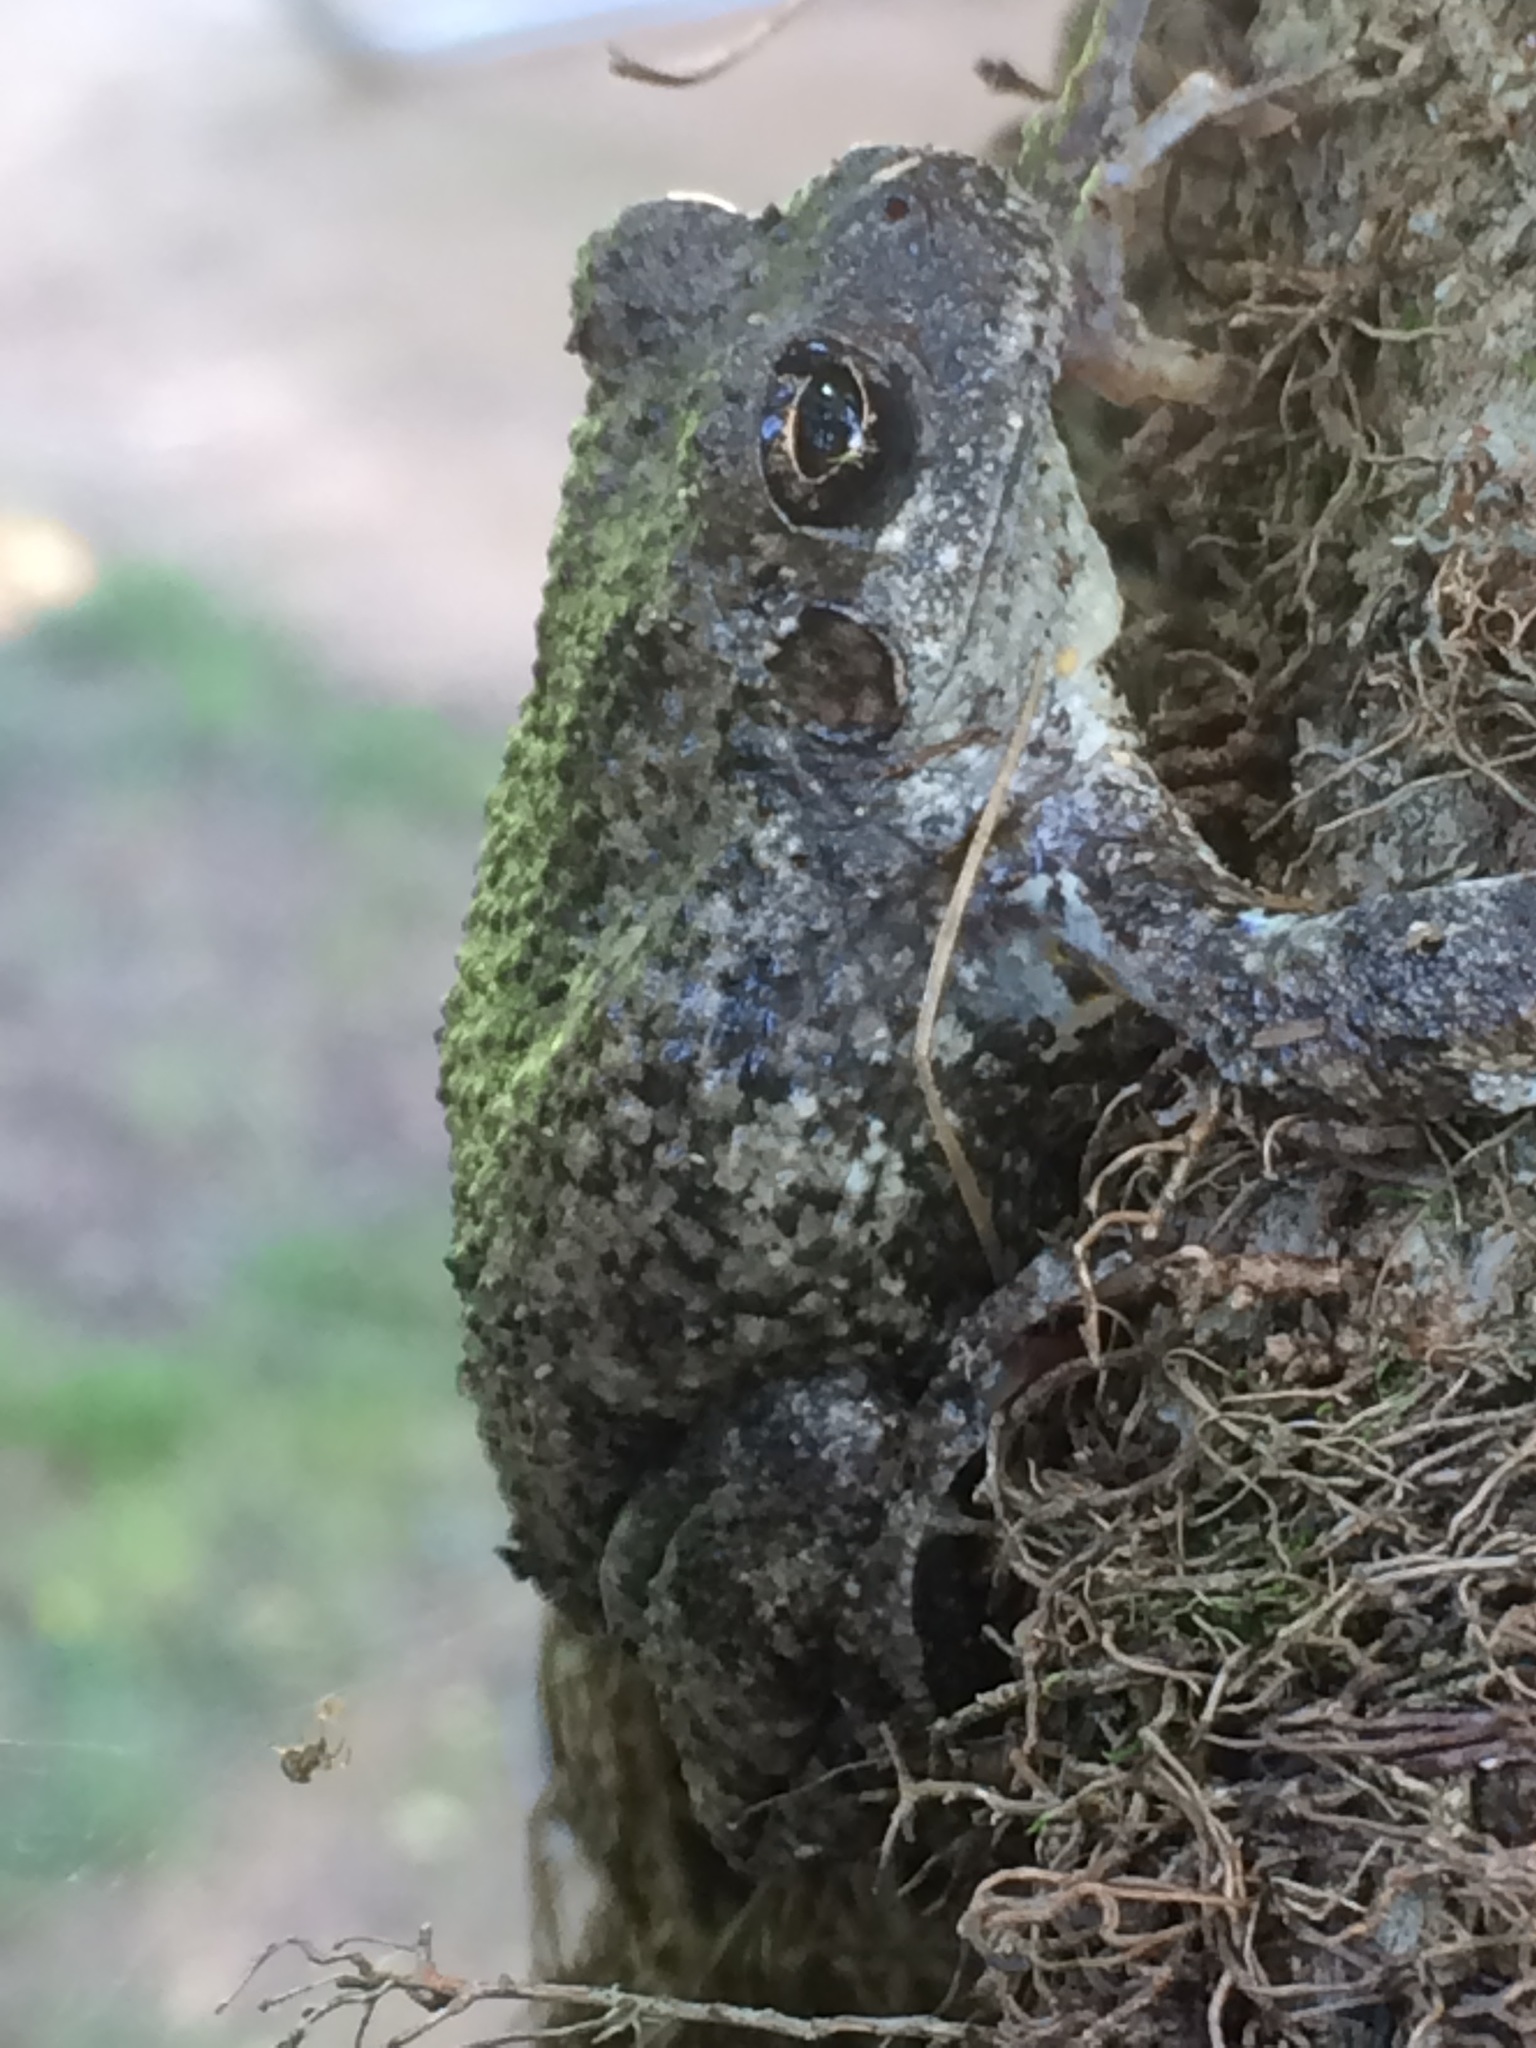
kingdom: Animalia
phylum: Chordata
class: Amphibia
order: Anura
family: Hylidae
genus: Dryophytes
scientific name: Dryophytes chrysoscelis
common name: Cope's gray treefrog
